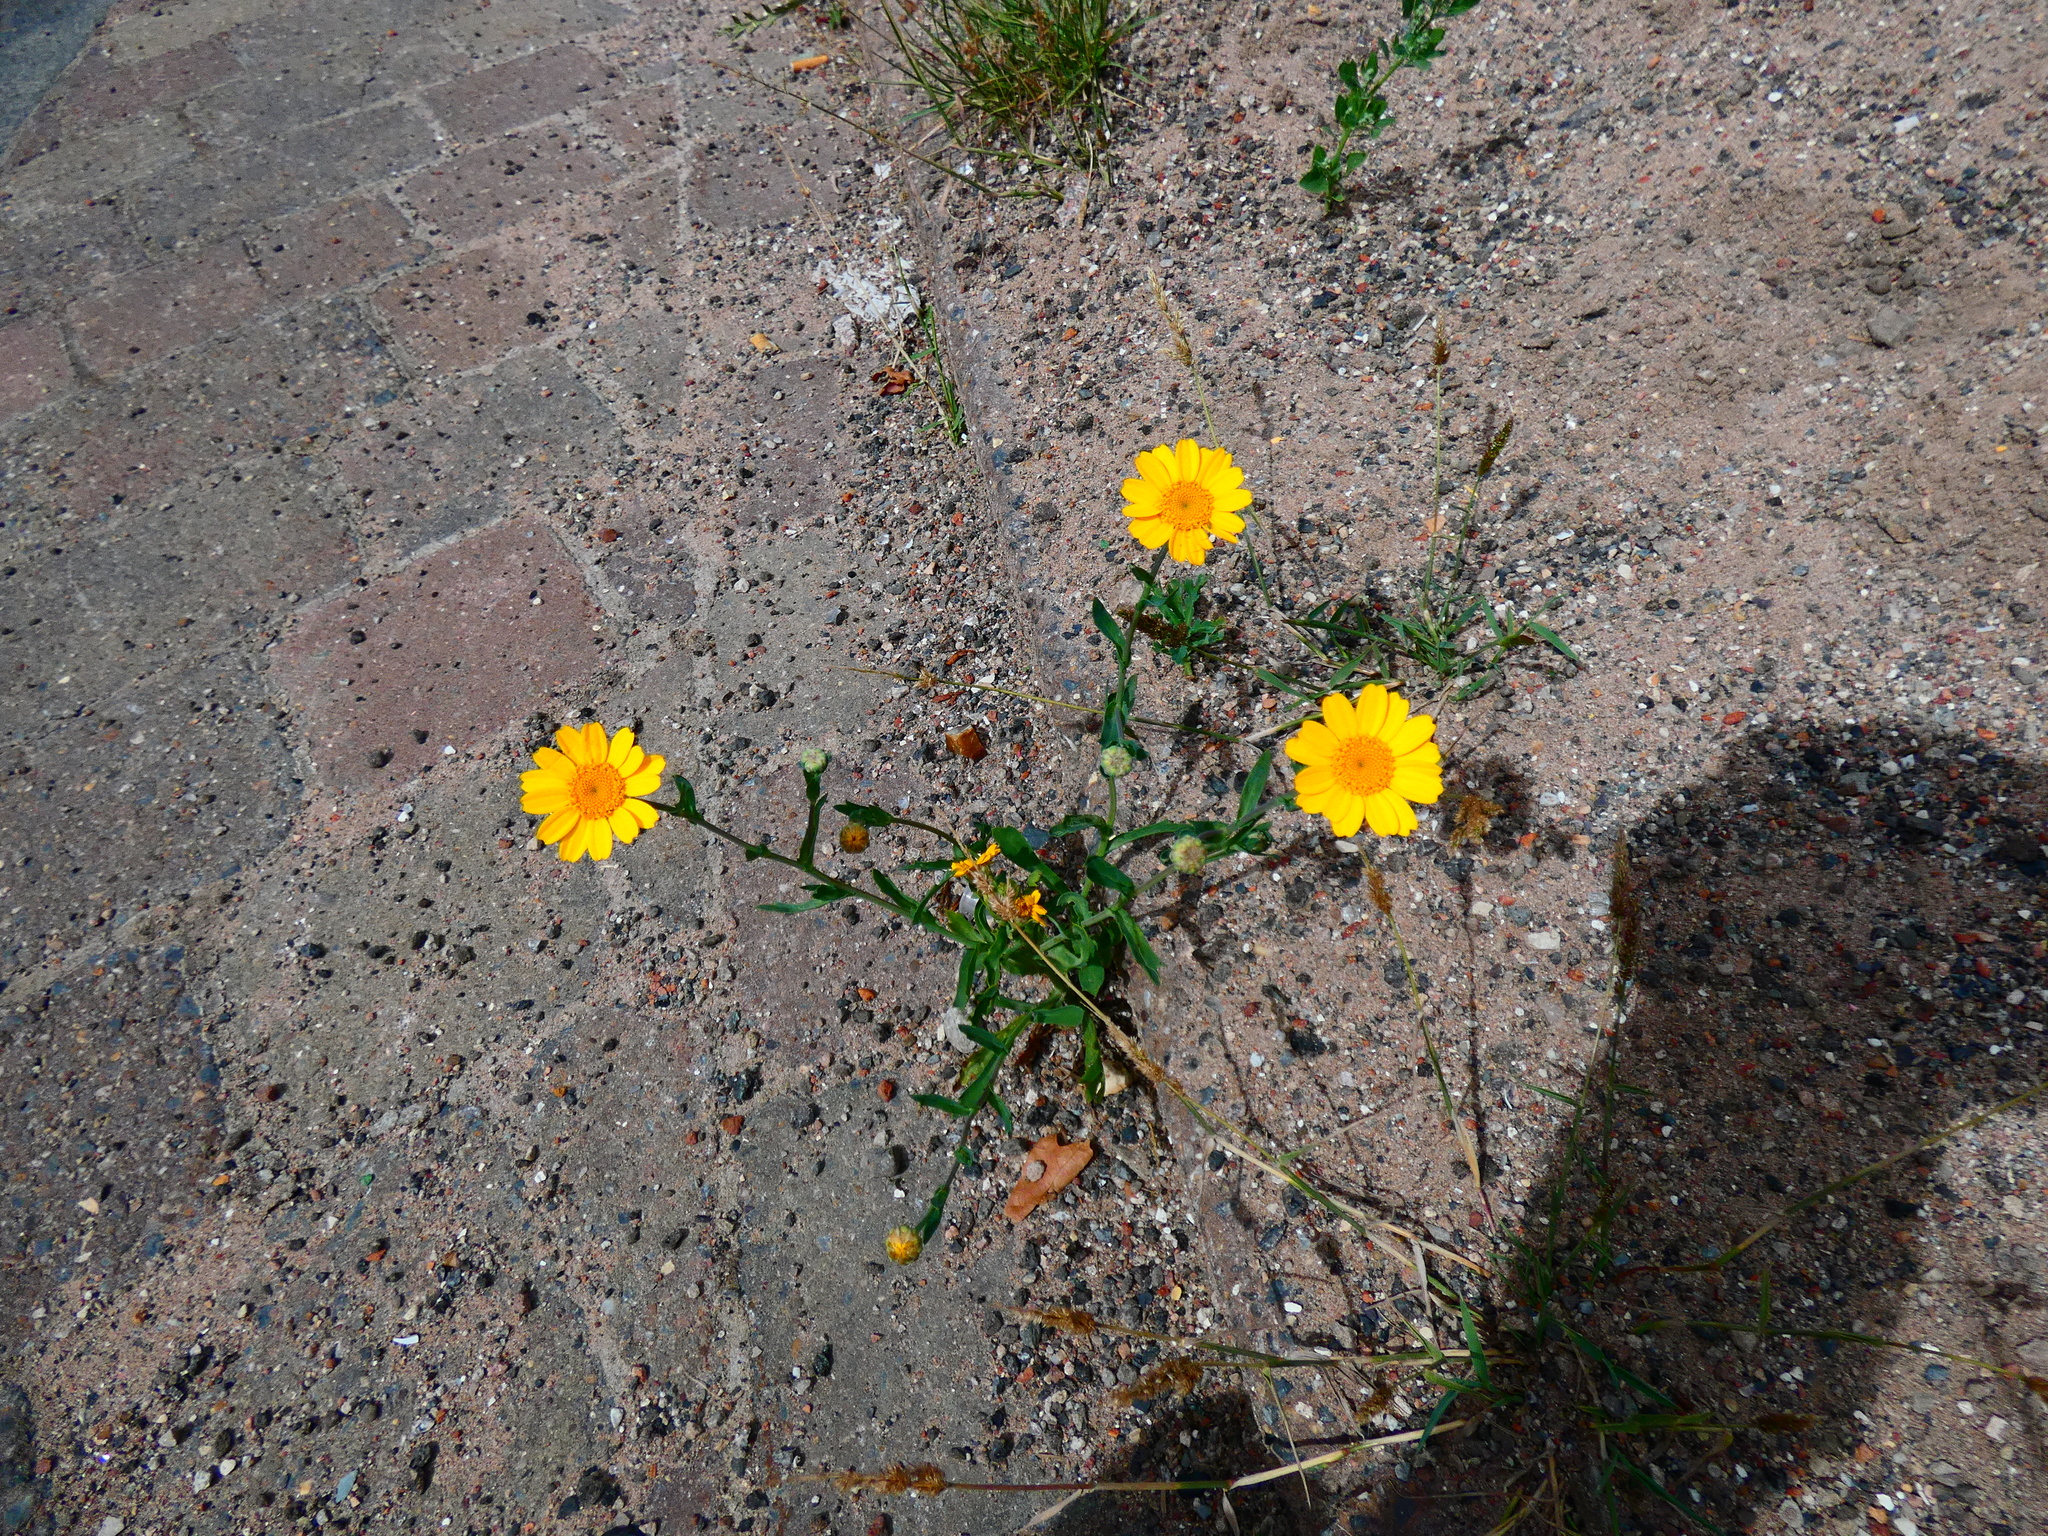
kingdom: Plantae
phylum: Tracheophyta
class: Magnoliopsida
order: Asterales
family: Asteraceae
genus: Glebionis
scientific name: Glebionis segetum
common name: Corndaisy
